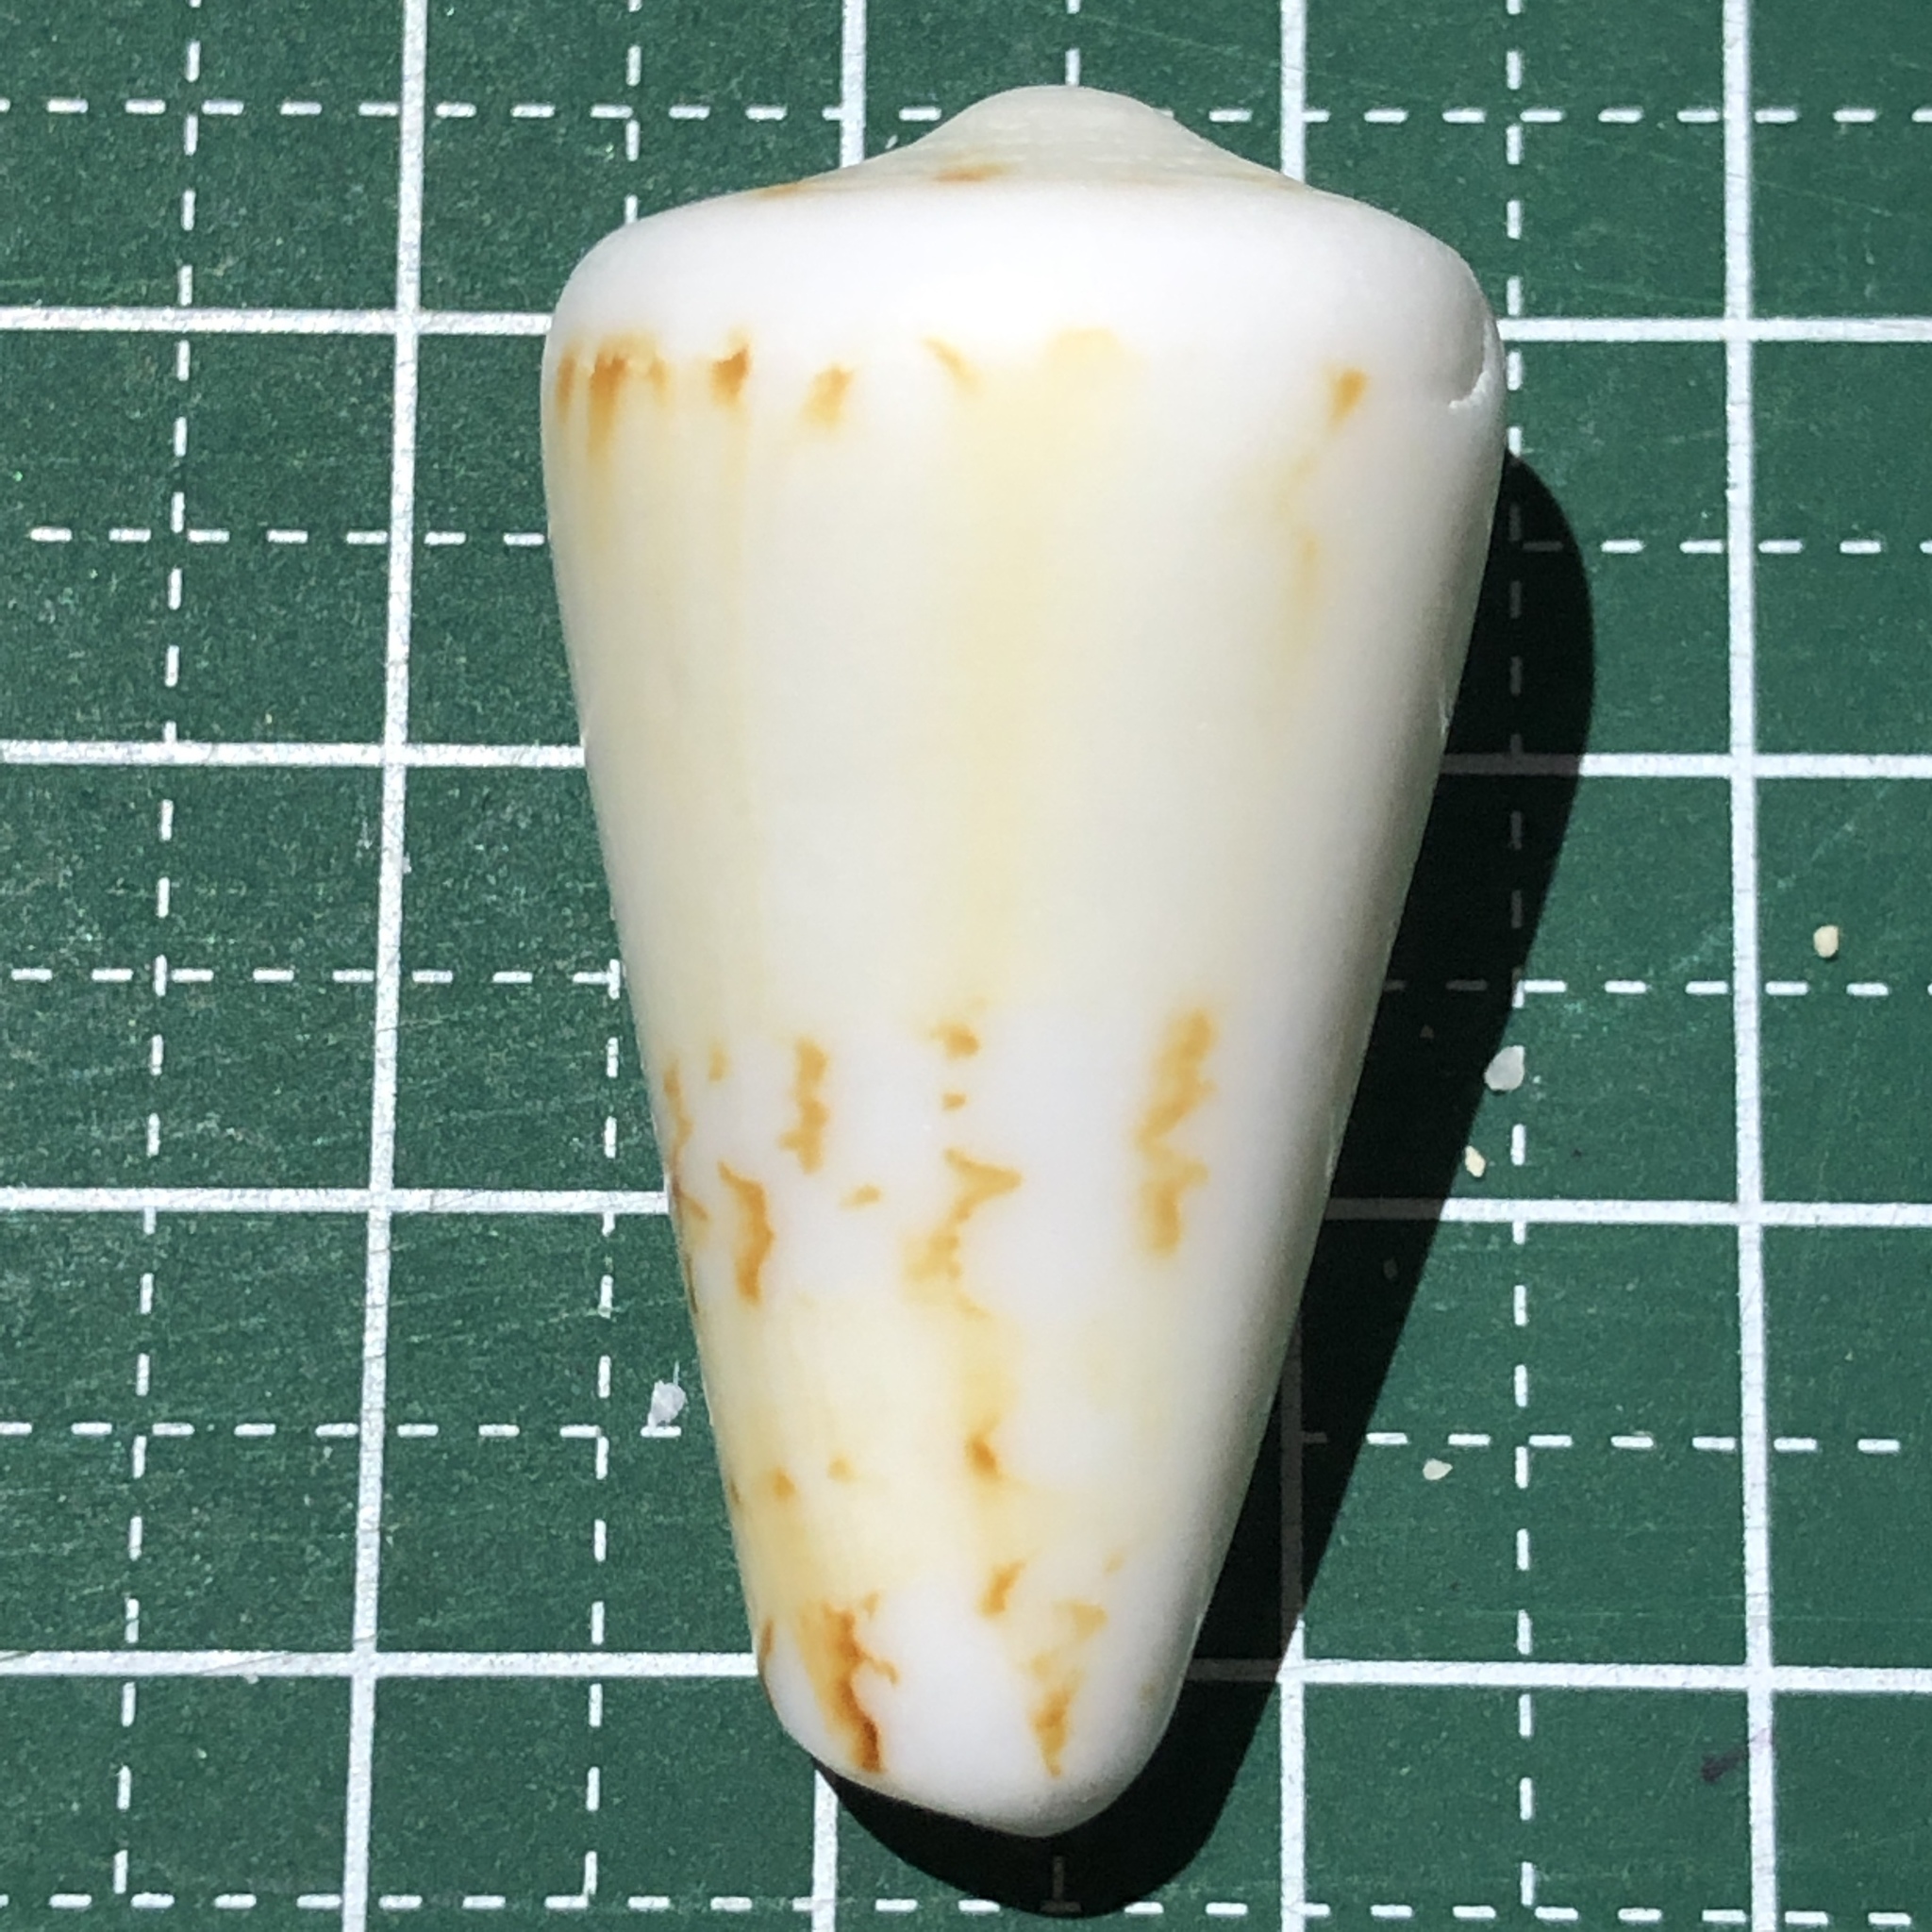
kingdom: Animalia
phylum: Mollusca
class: Gastropoda
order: Neogastropoda
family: Conidae
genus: Conus
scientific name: Conus generalis
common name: General cone
